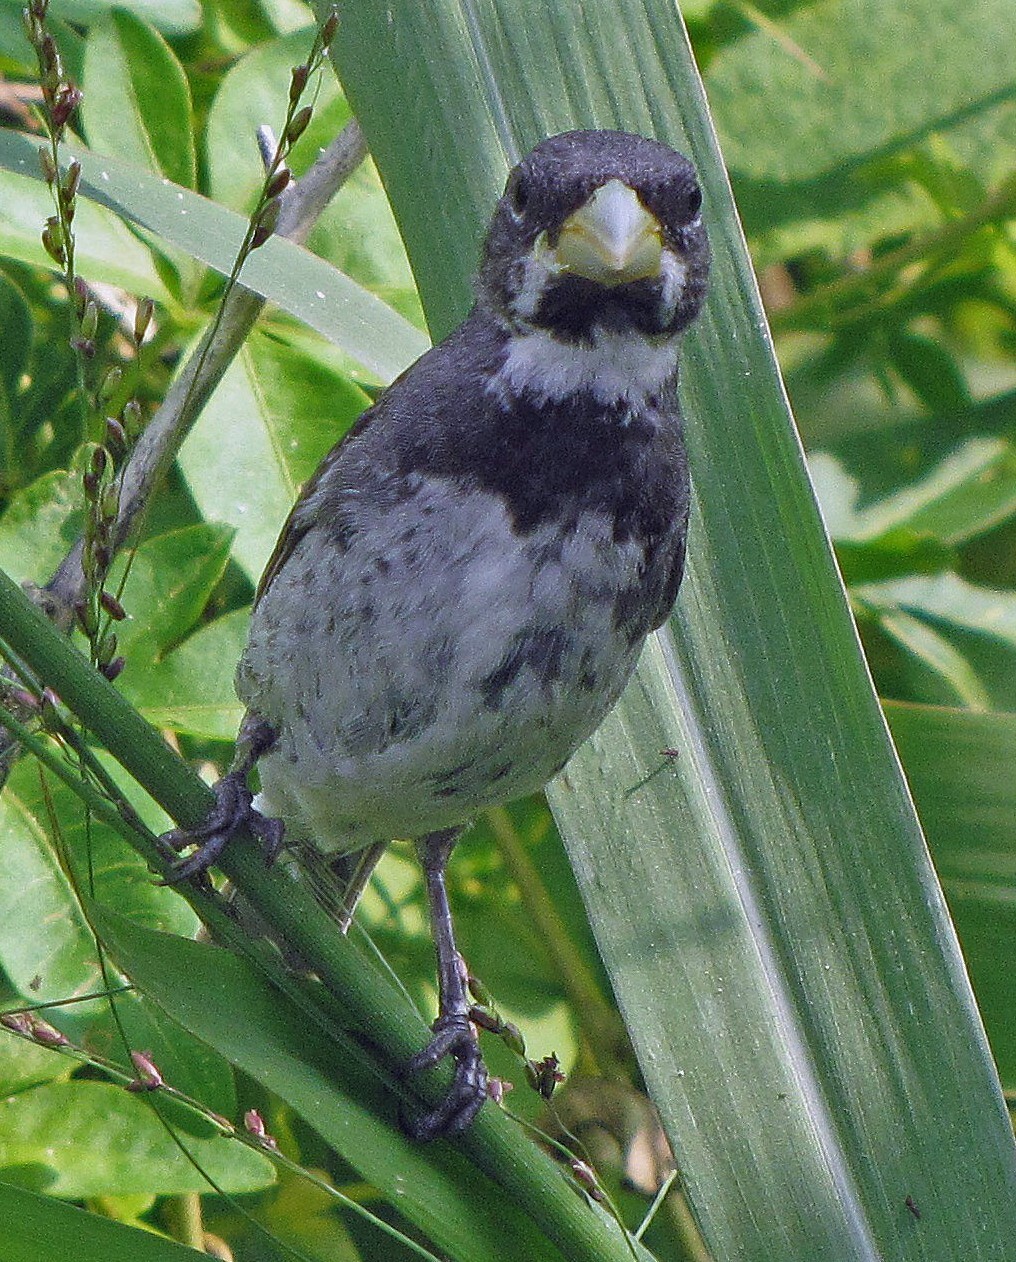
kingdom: Animalia
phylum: Chordata
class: Aves
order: Passeriformes
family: Thraupidae
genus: Sporophila
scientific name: Sporophila caerulescens
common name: Double-collared seedeater
